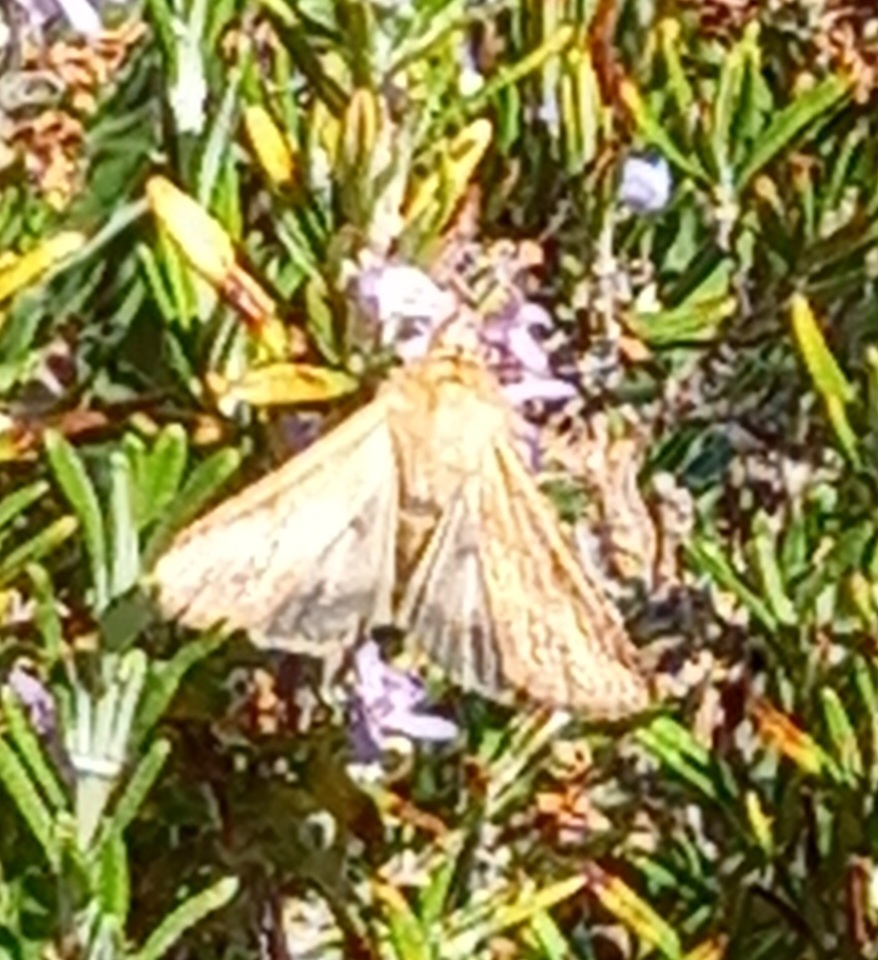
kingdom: Animalia
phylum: Arthropoda
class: Insecta
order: Lepidoptera
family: Noctuidae
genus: Helicoverpa
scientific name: Helicoverpa armigera
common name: Cotton bollworm
